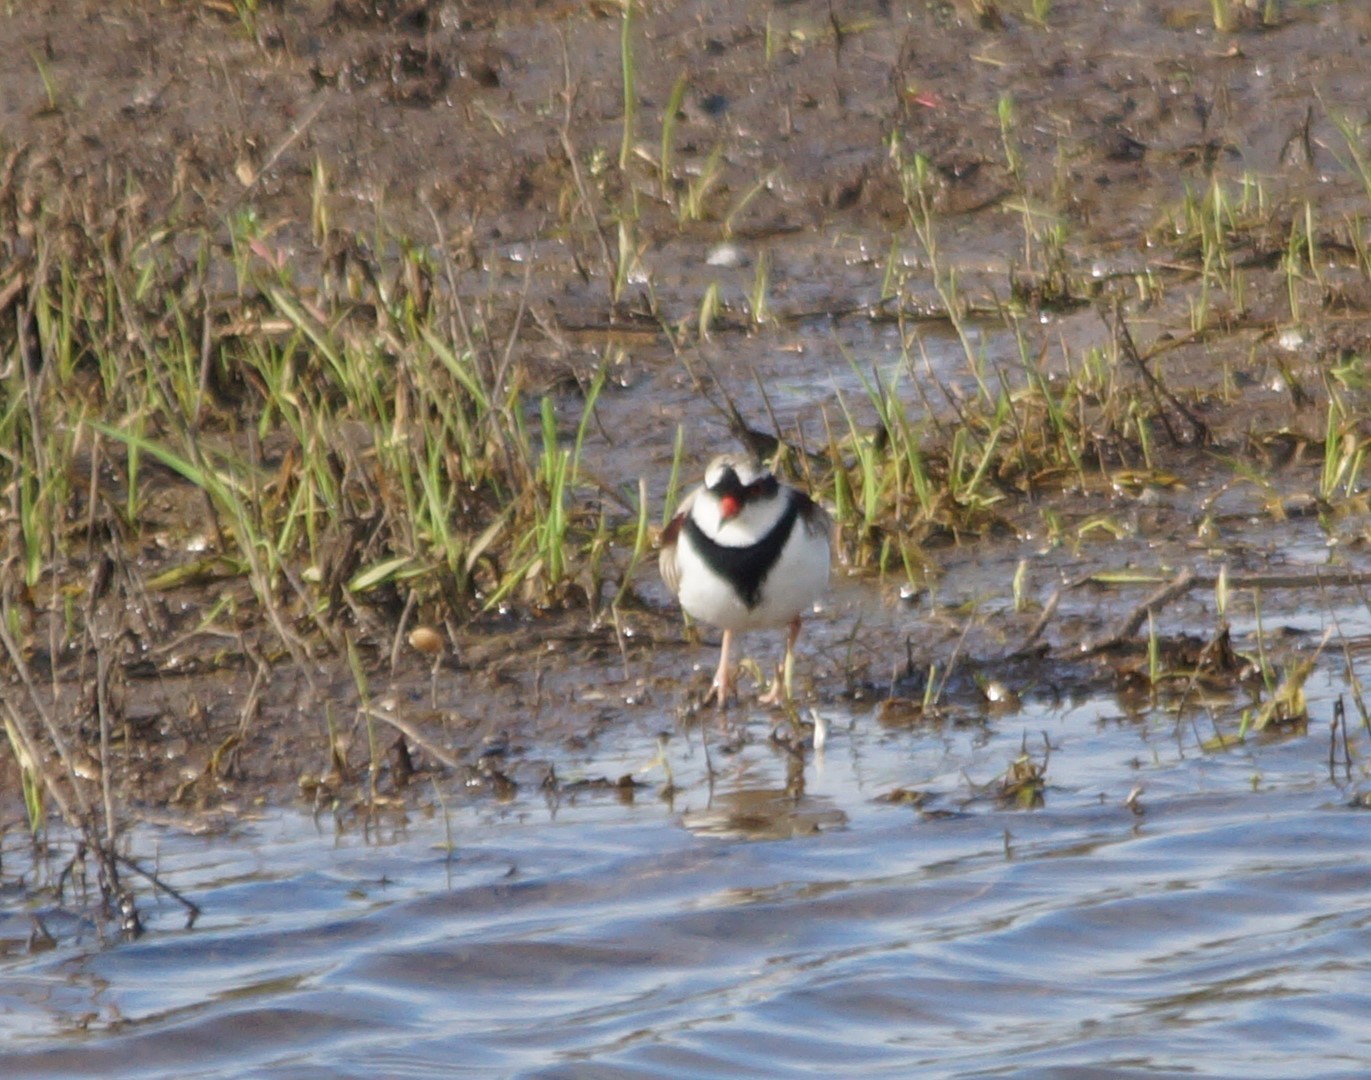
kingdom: Animalia
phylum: Chordata
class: Aves
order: Charadriiformes
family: Charadriidae
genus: Elseyornis
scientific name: Elseyornis melanops
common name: Black-fronted dotterel
